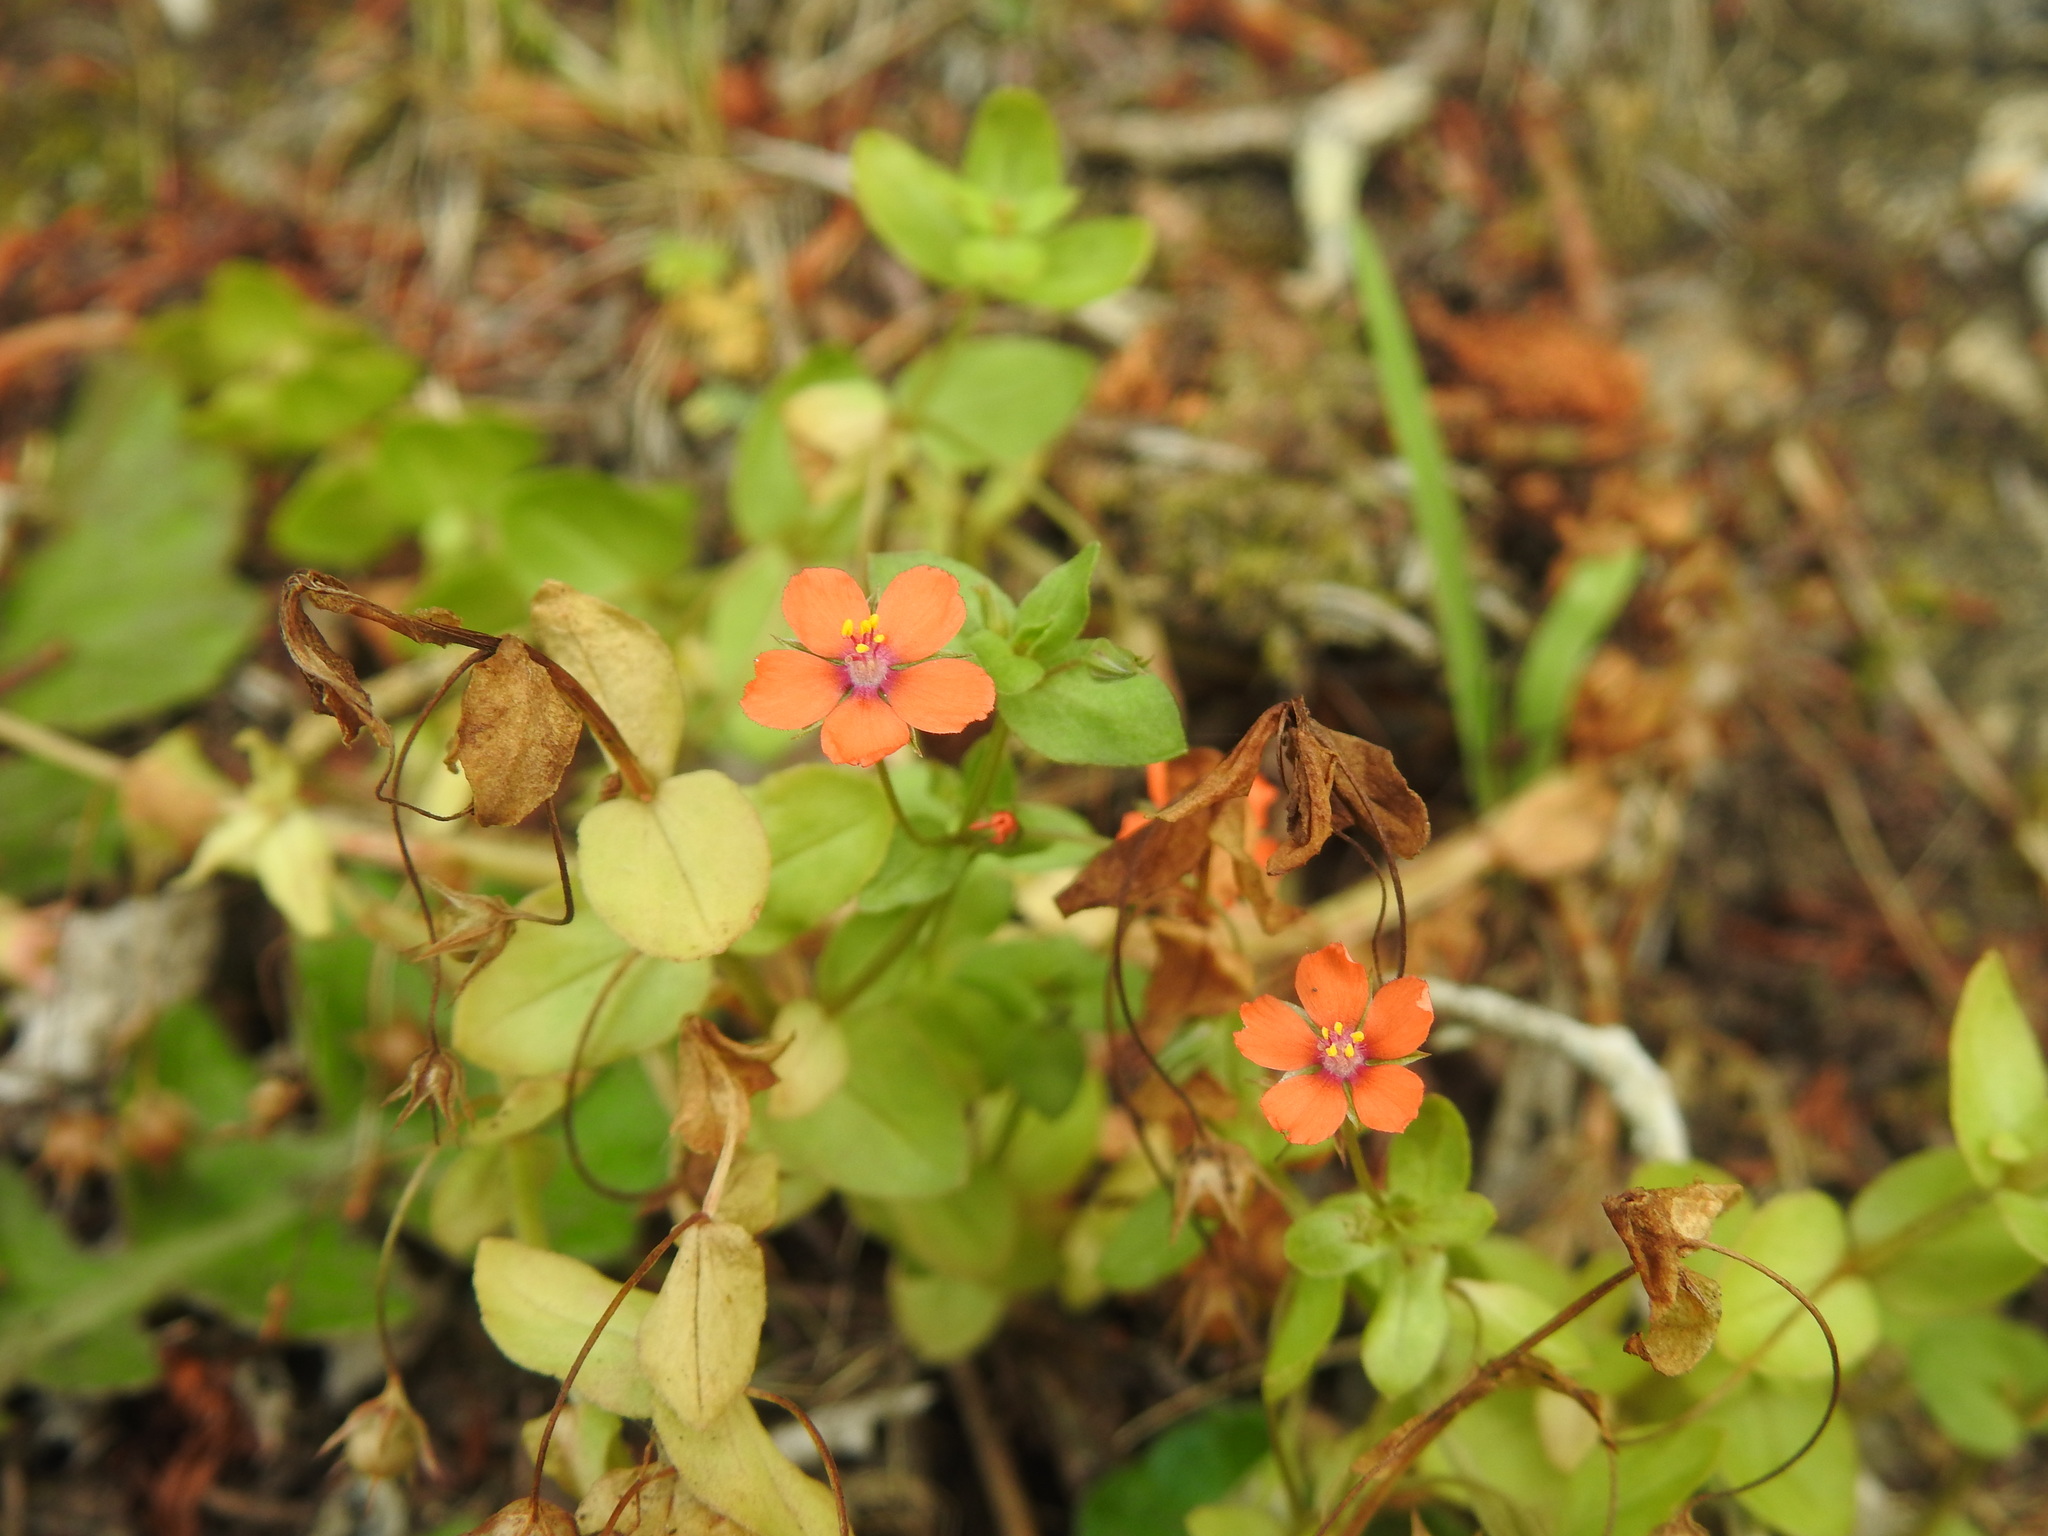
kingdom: Plantae
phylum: Tracheophyta
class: Magnoliopsida
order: Ericales
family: Primulaceae
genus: Lysimachia
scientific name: Lysimachia arvensis
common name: Scarlet pimpernel
